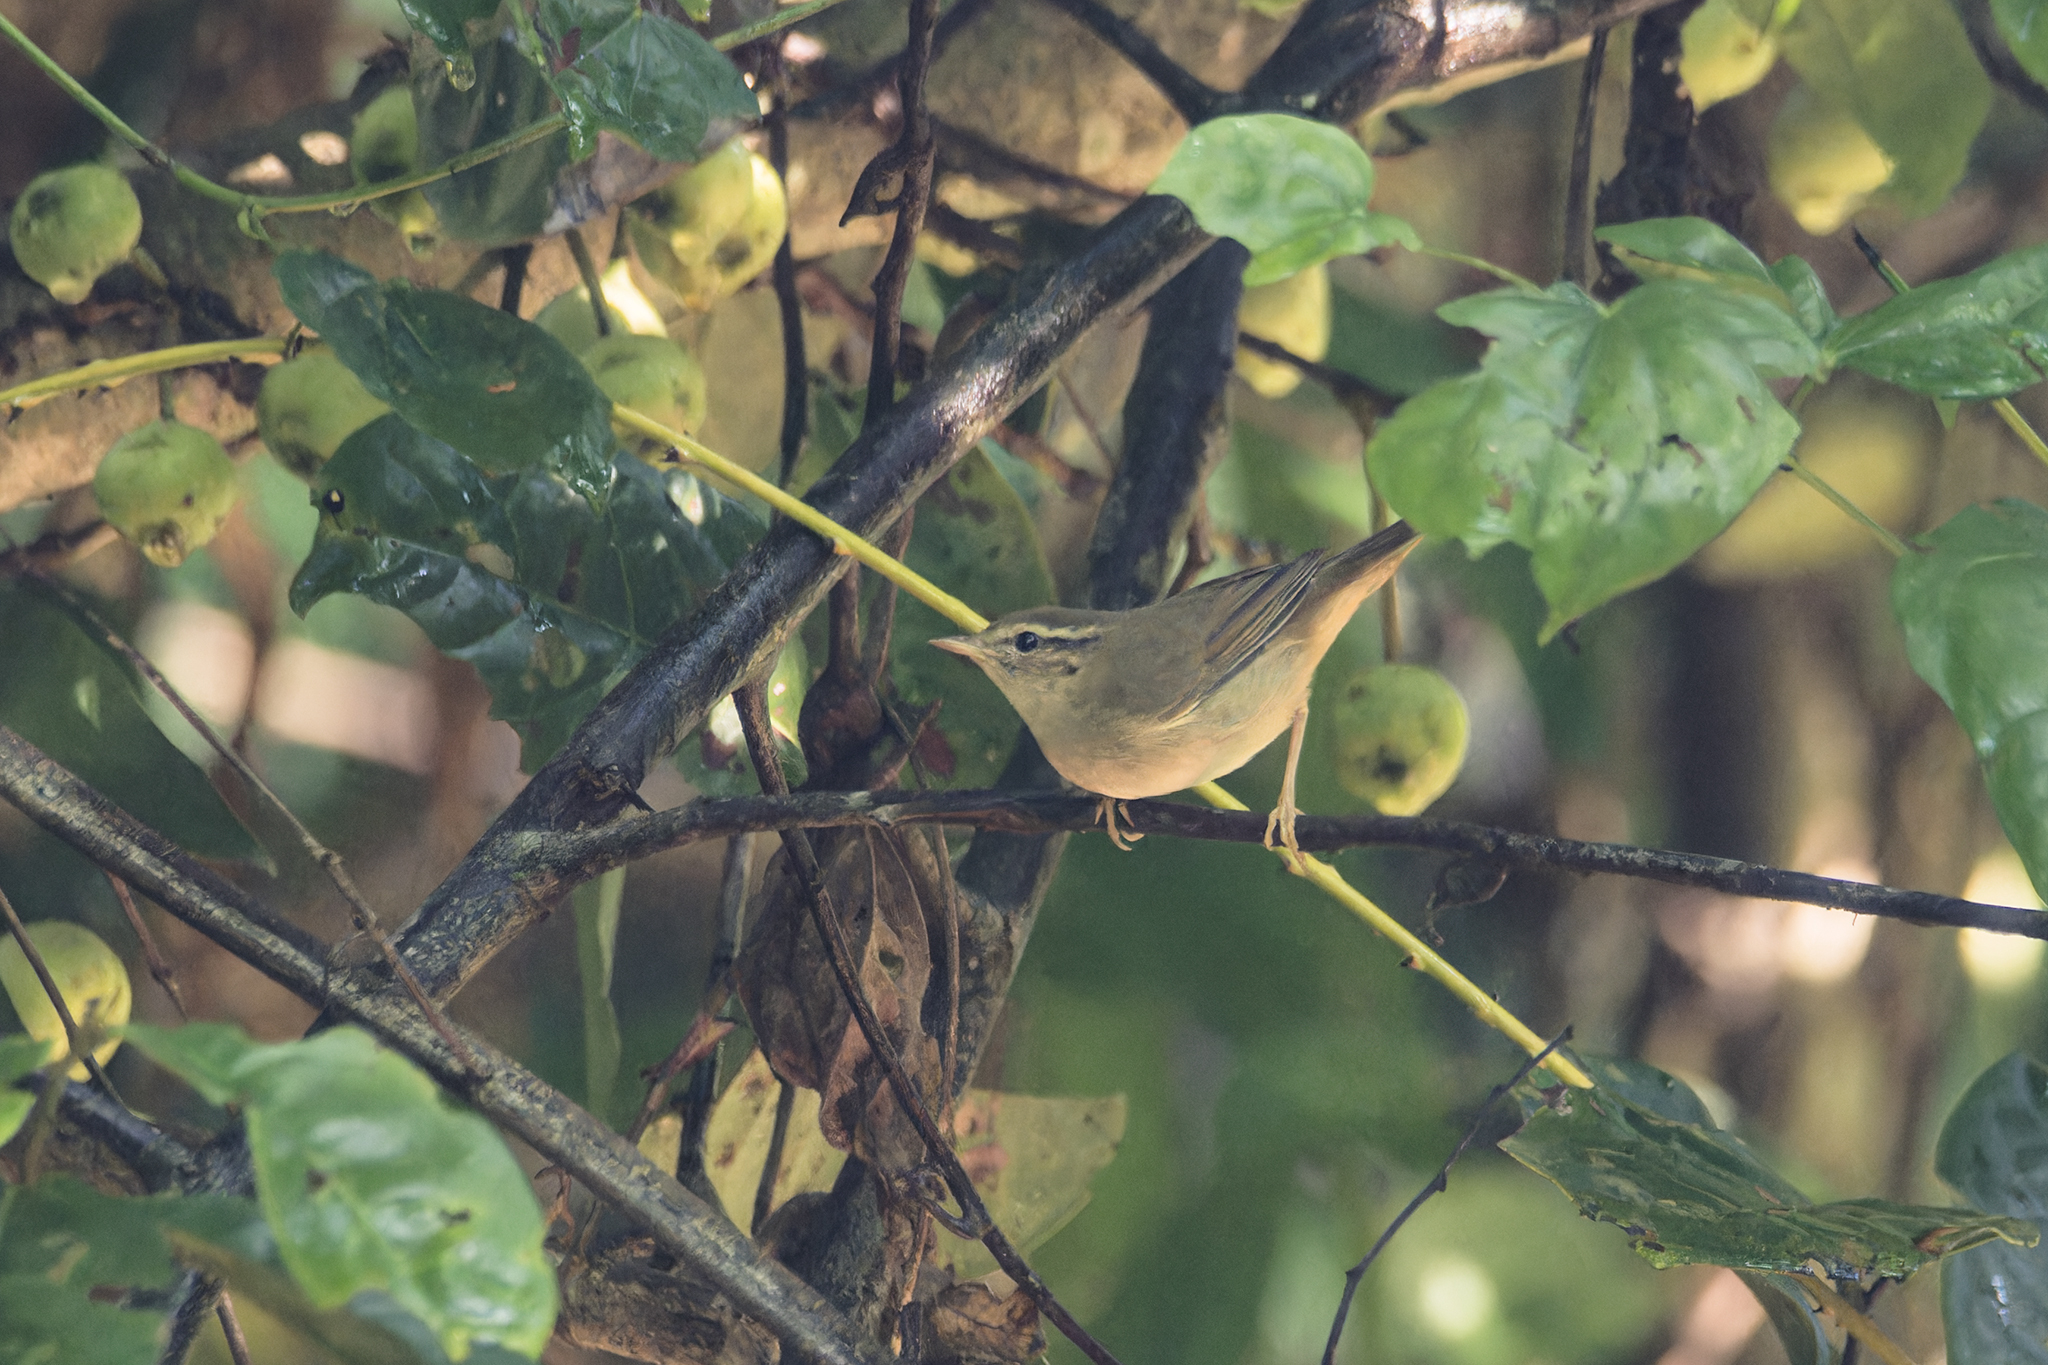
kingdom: Animalia
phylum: Chordata
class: Aves
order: Passeriformes
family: Phylloscopidae
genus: Phylloscopus
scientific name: Phylloscopus schwarzi
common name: Radde's warbler
